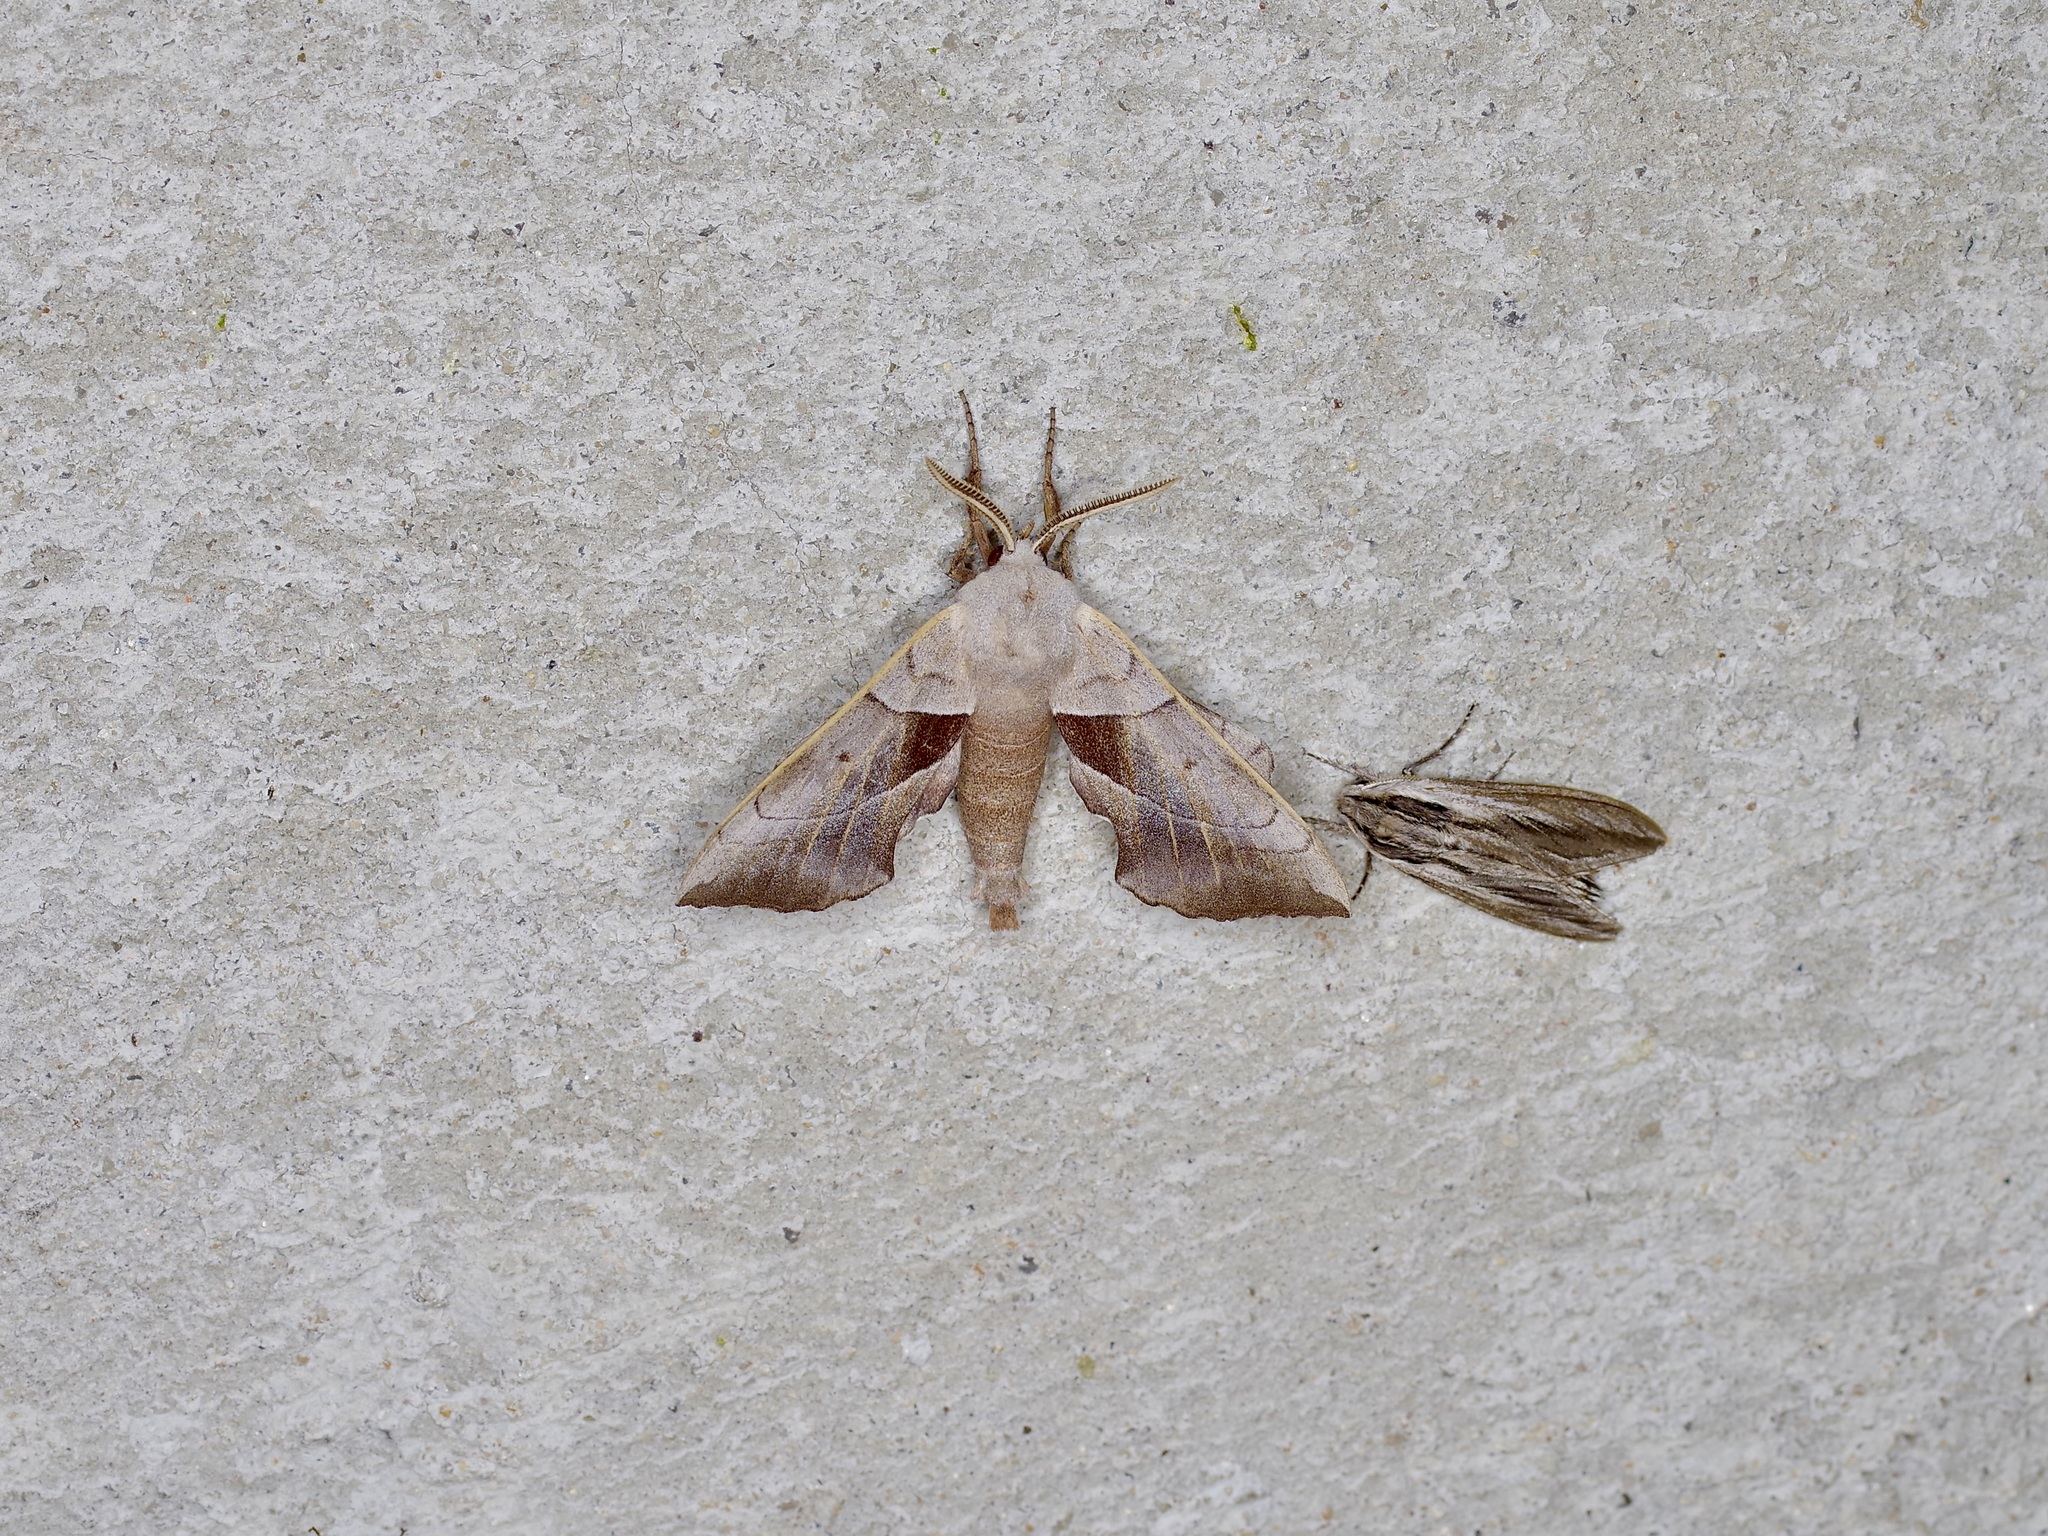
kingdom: Animalia
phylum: Arthropoda
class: Insecta
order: Lepidoptera
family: Sphingidae
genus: Amorpha
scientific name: Amorpha juglandis
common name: Walnut sphinx
